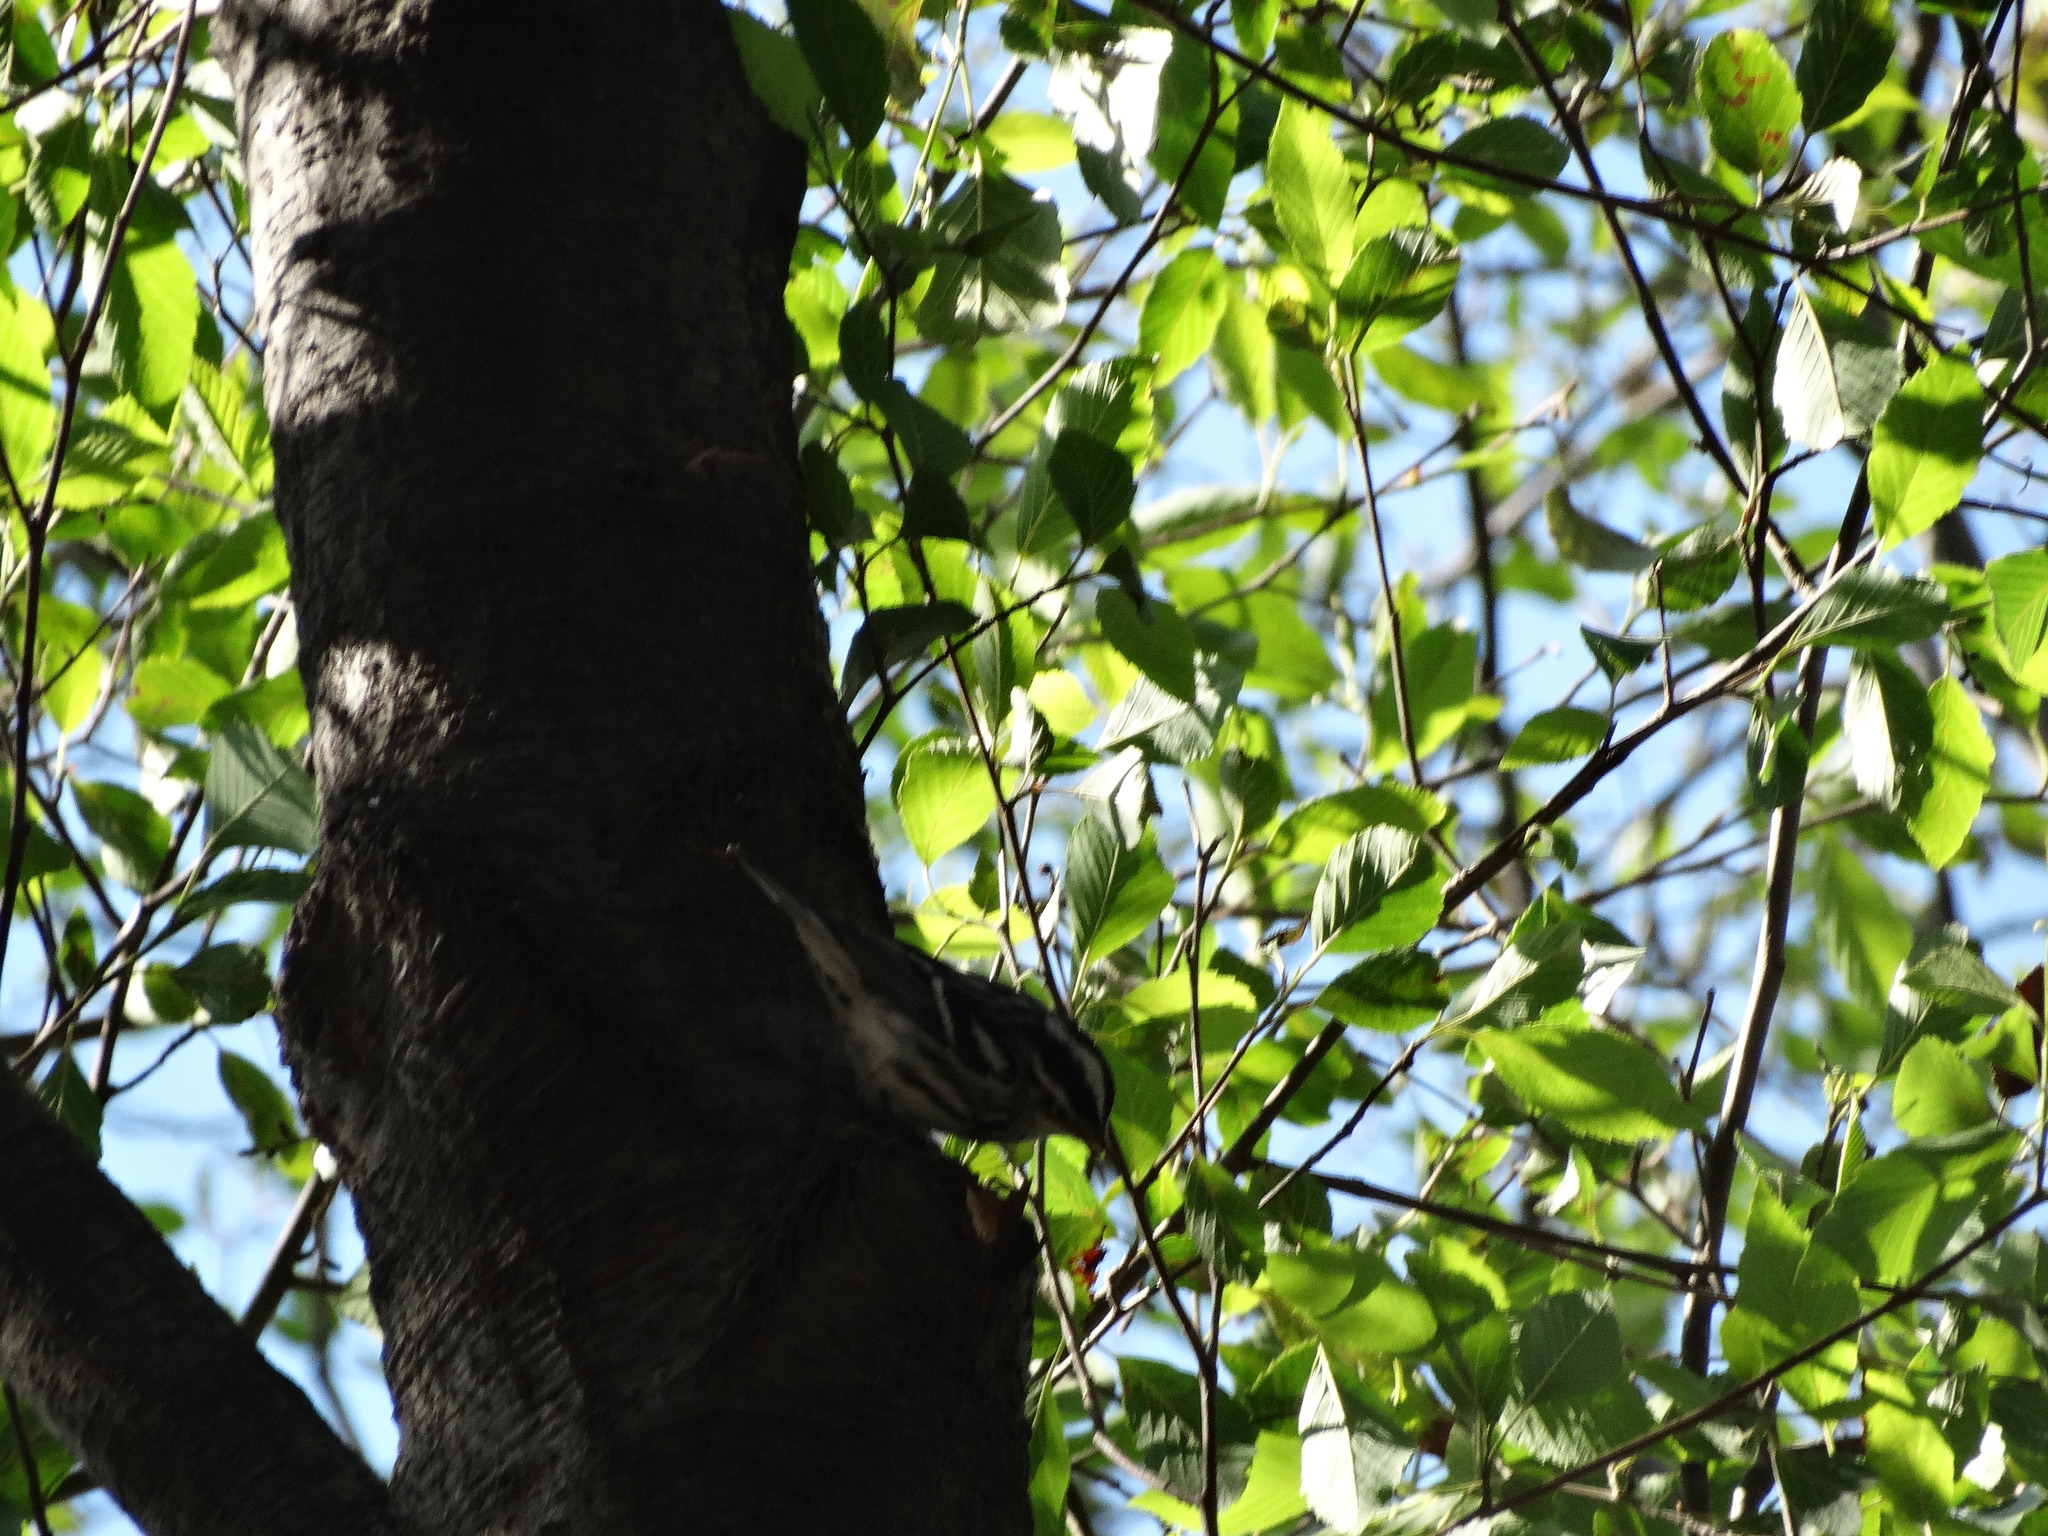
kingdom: Animalia
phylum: Chordata
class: Aves
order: Passeriformes
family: Parulidae
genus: Mniotilta
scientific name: Mniotilta varia
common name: Black-and-white warbler
